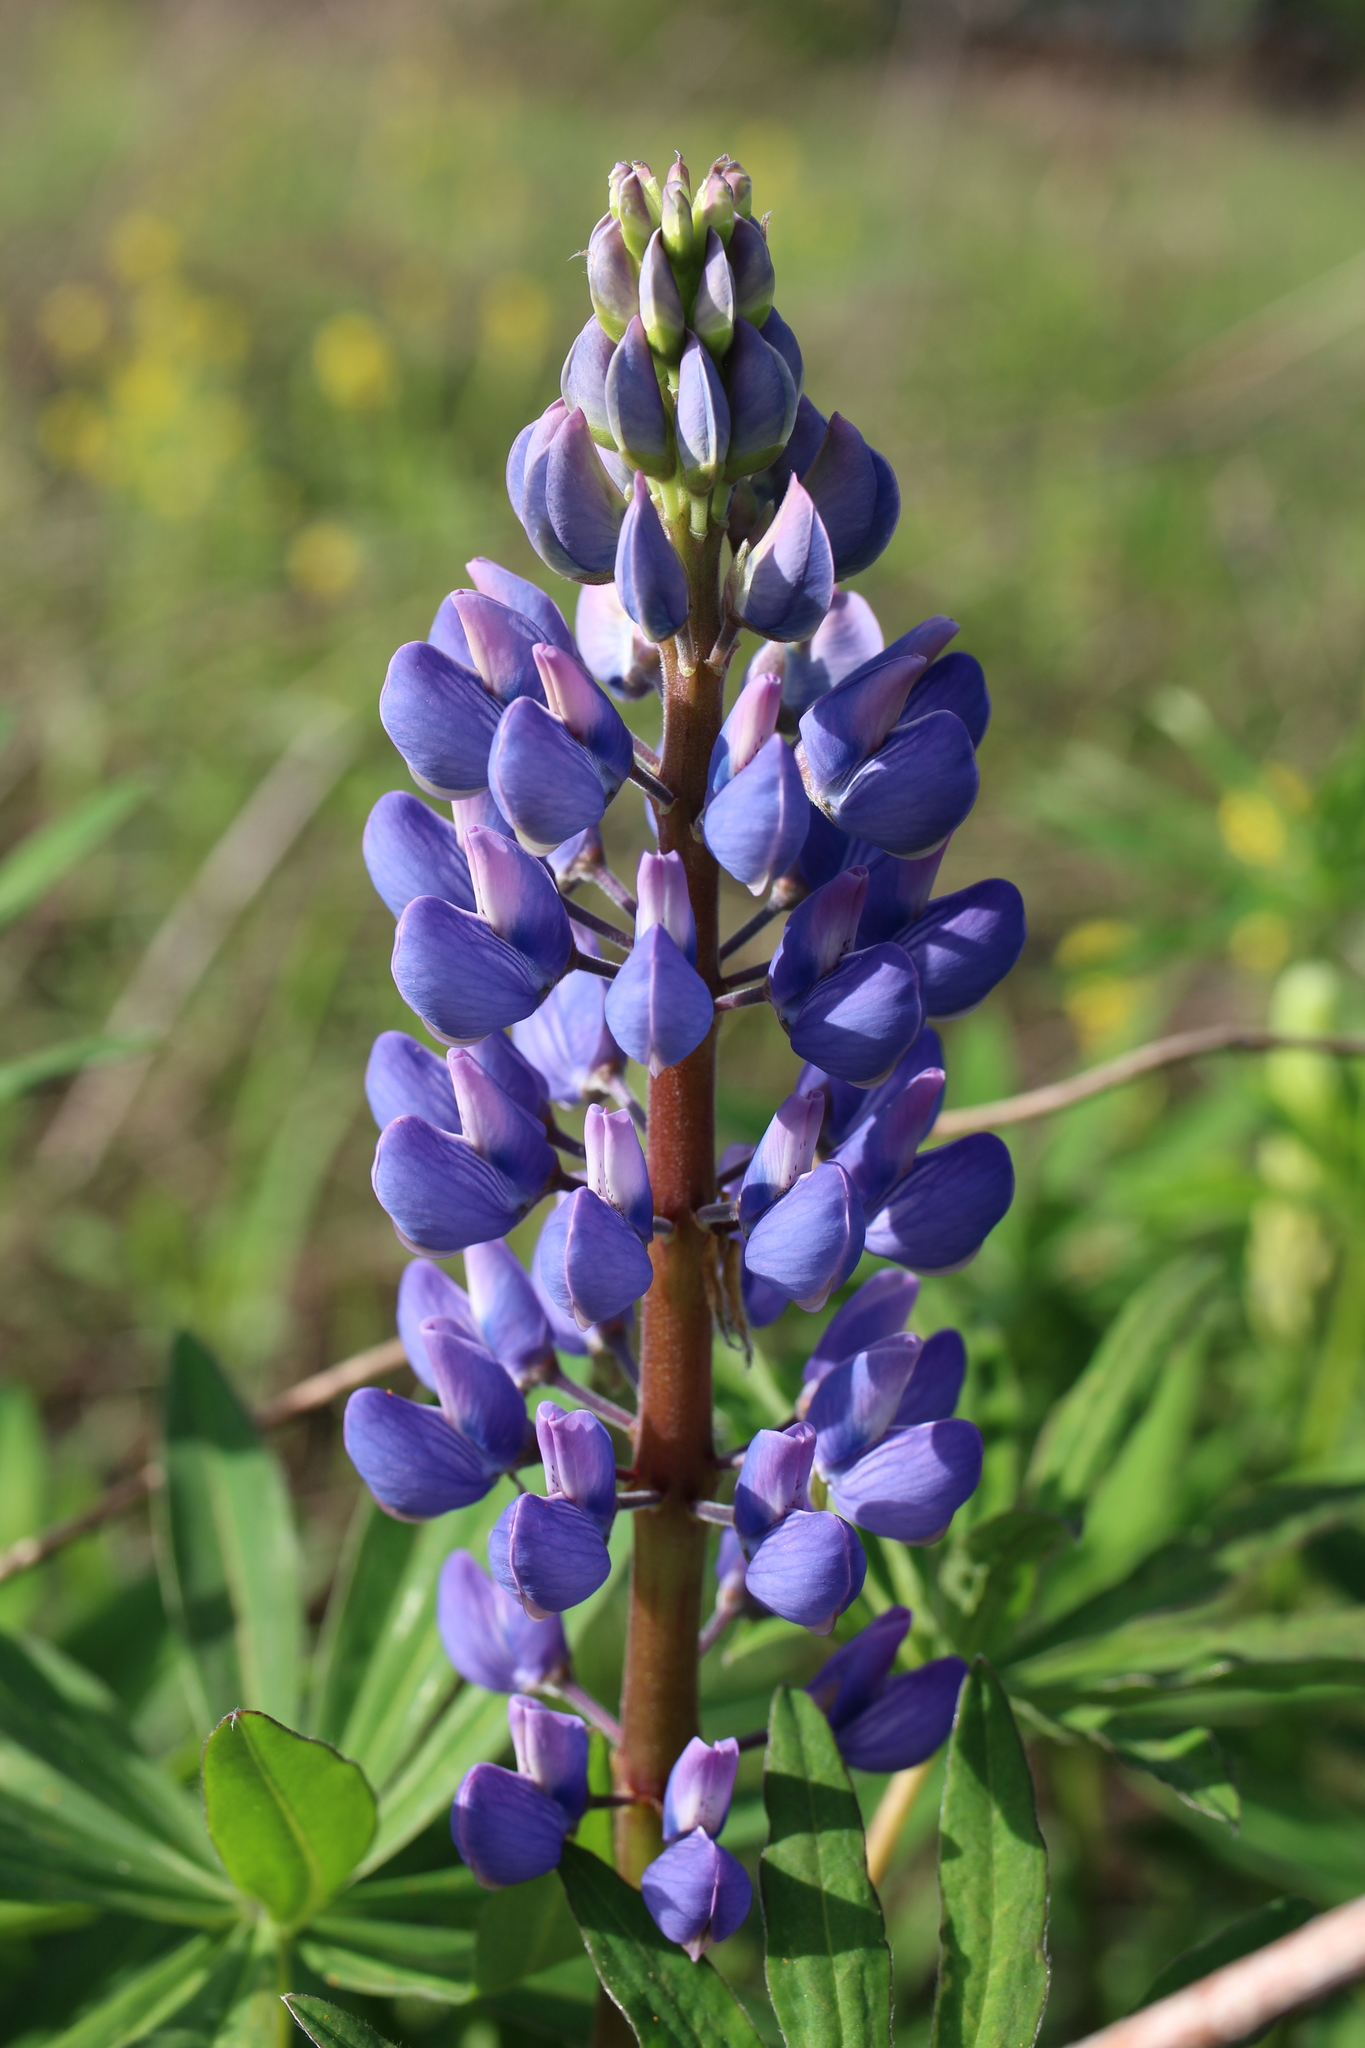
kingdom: Plantae
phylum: Tracheophyta
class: Magnoliopsida
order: Fabales
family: Fabaceae
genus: Lupinus
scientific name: Lupinus perennis
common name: Sundial lupine
